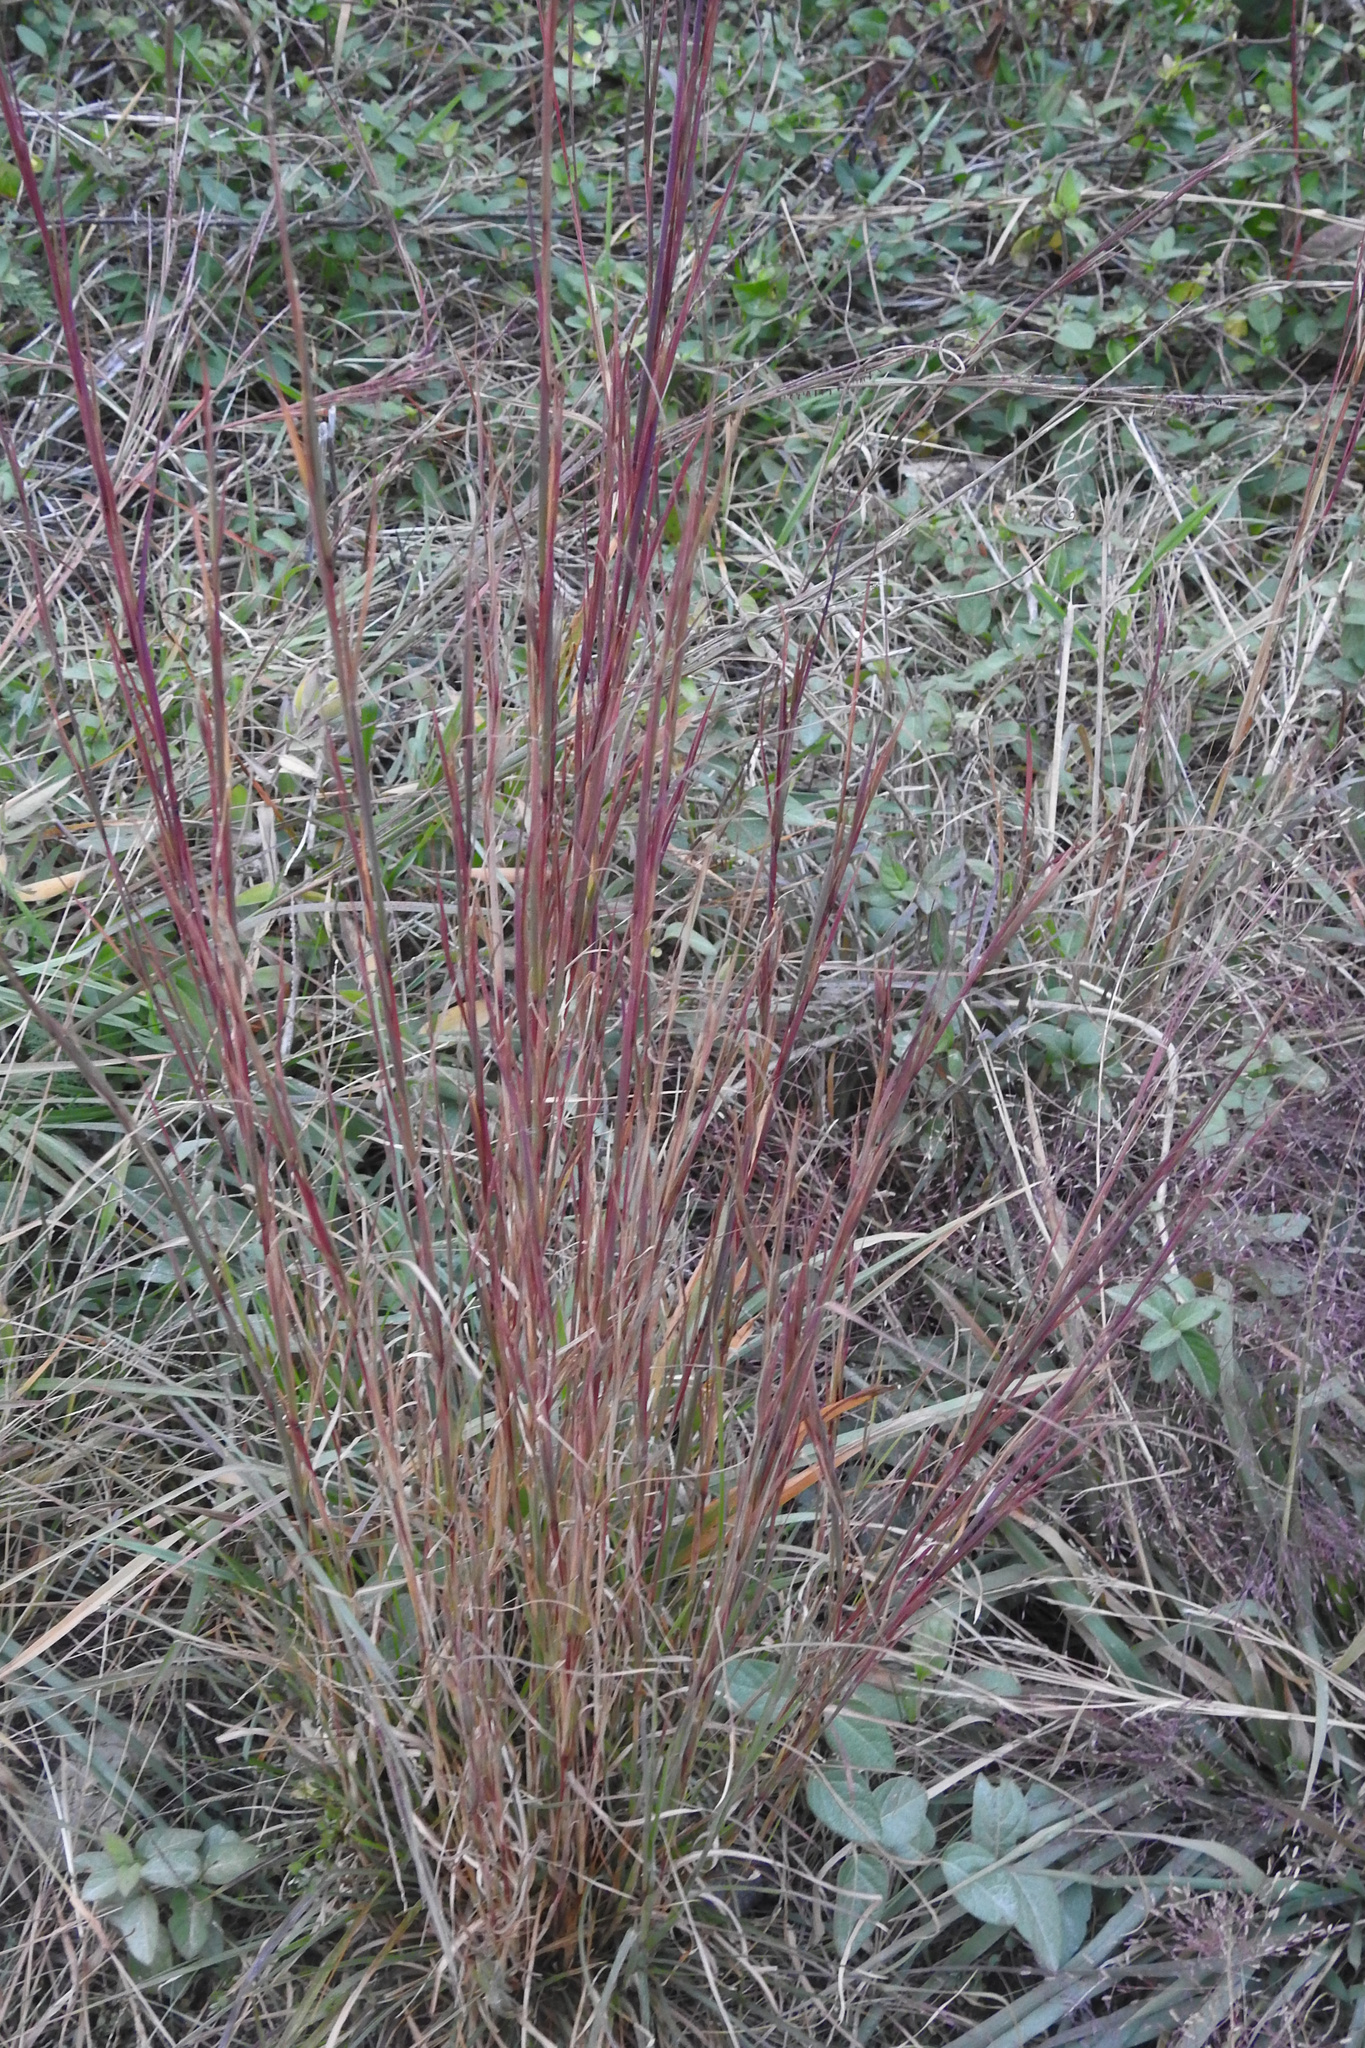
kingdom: Plantae
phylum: Tracheophyta
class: Liliopsida
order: Poales
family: Poaceae
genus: Schizachyrium
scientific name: Schizachyrium scoparium
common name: Little bluestem
